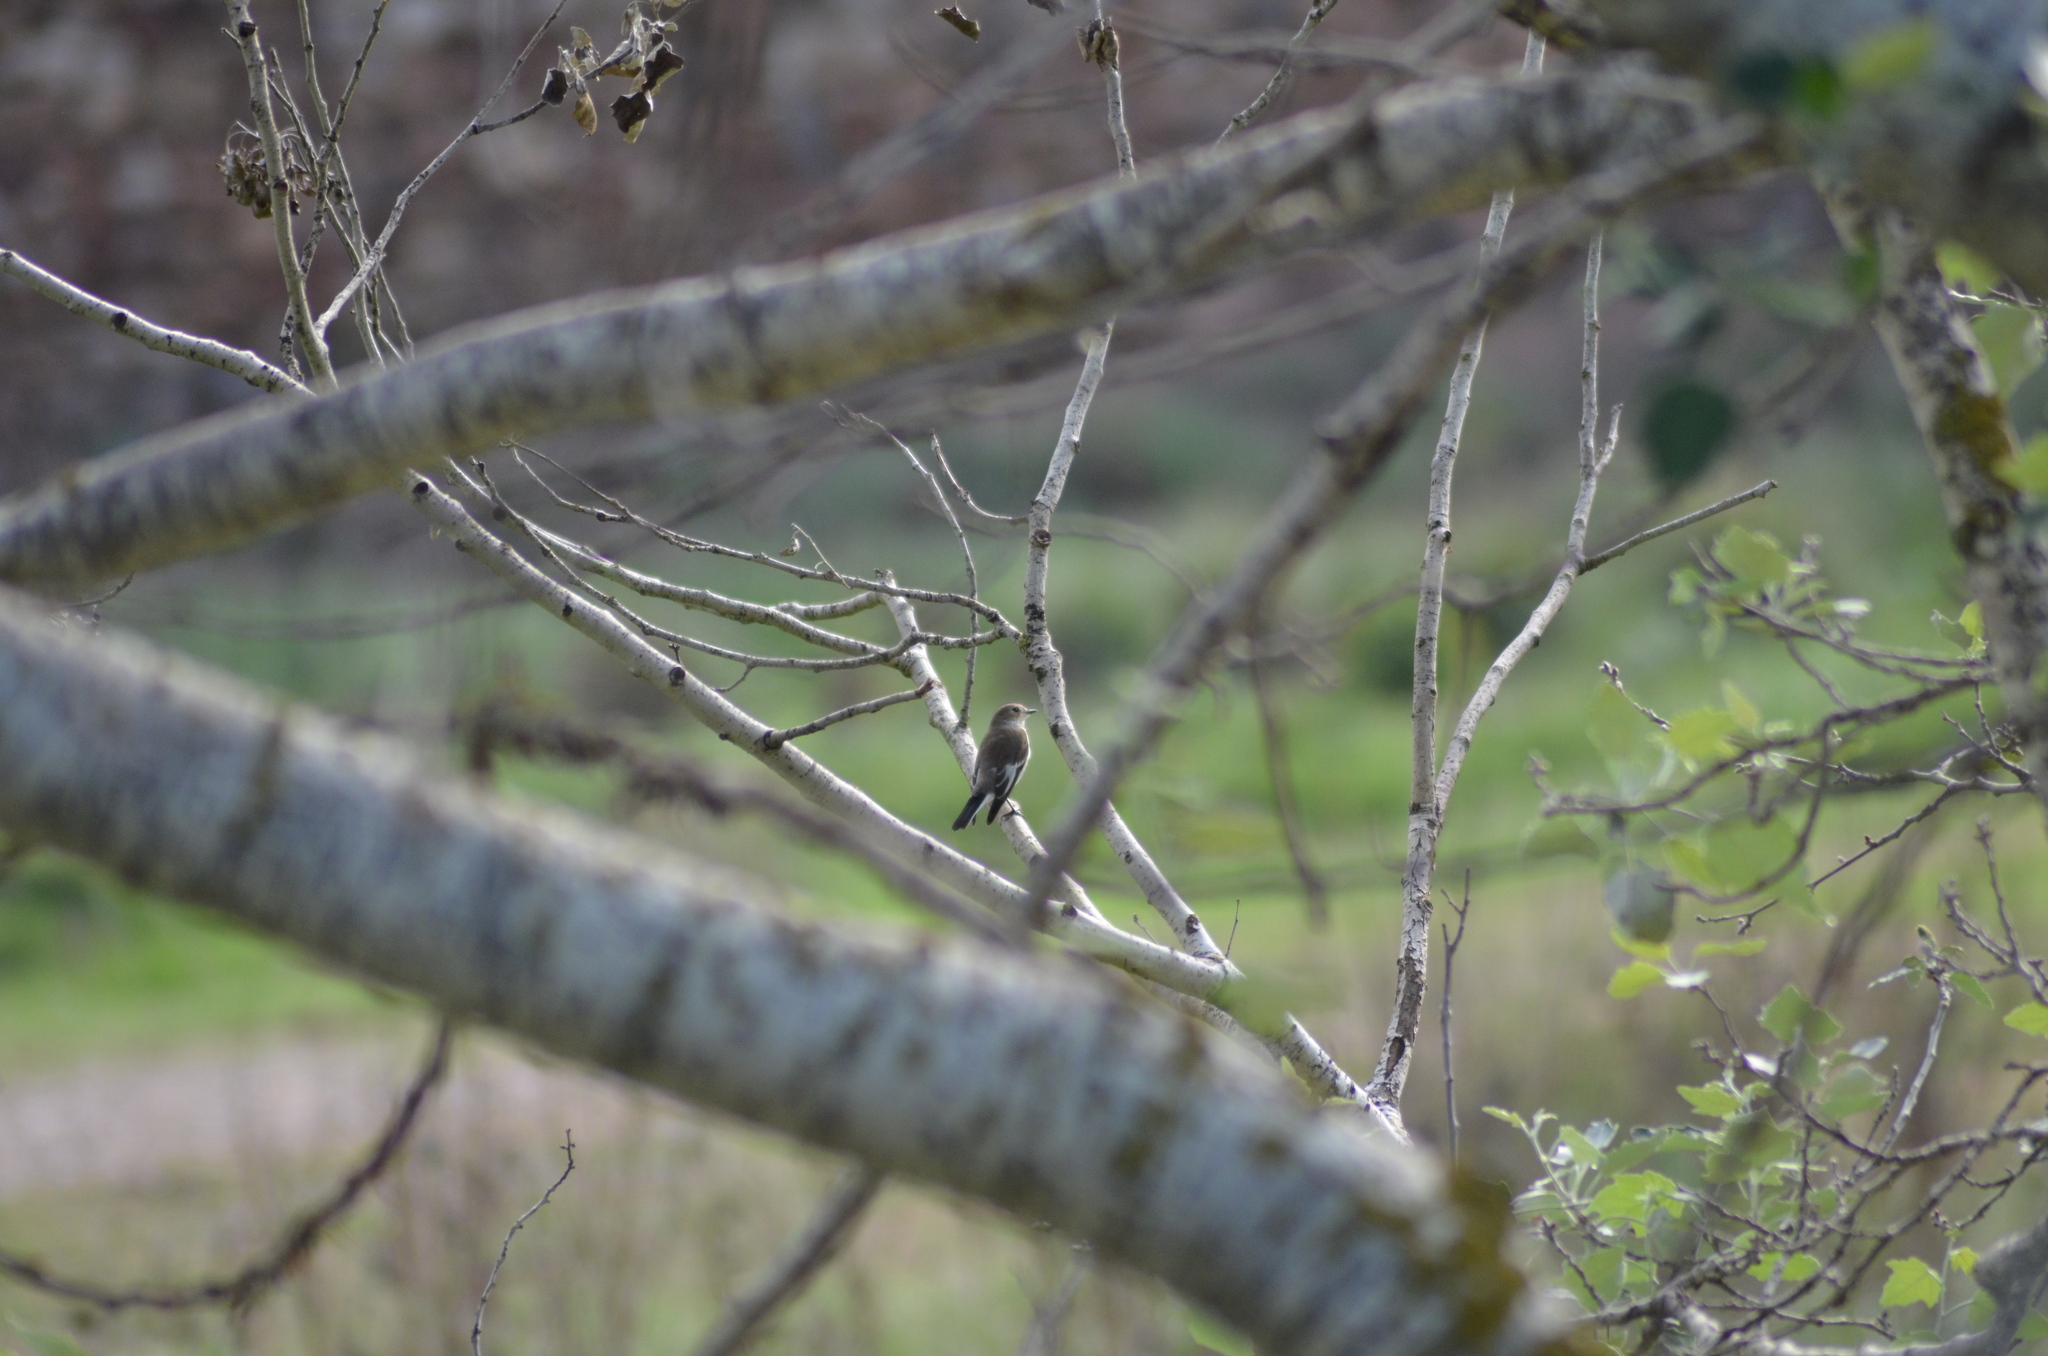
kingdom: Animalia
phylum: Chordata
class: Aves
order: Passeriformes
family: Muscicapidae
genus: Ficedula
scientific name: Ficedula hypoleuca
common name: European pied flycatcher
